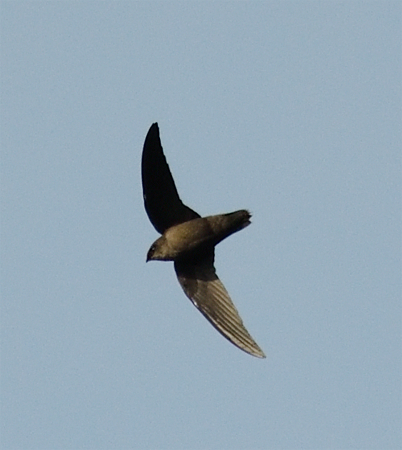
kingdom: Animalia
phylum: Chordata
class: Aves
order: Apodiformes
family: Apodidae
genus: Chaetura
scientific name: Chaetura pelagica
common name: Chimney swift
